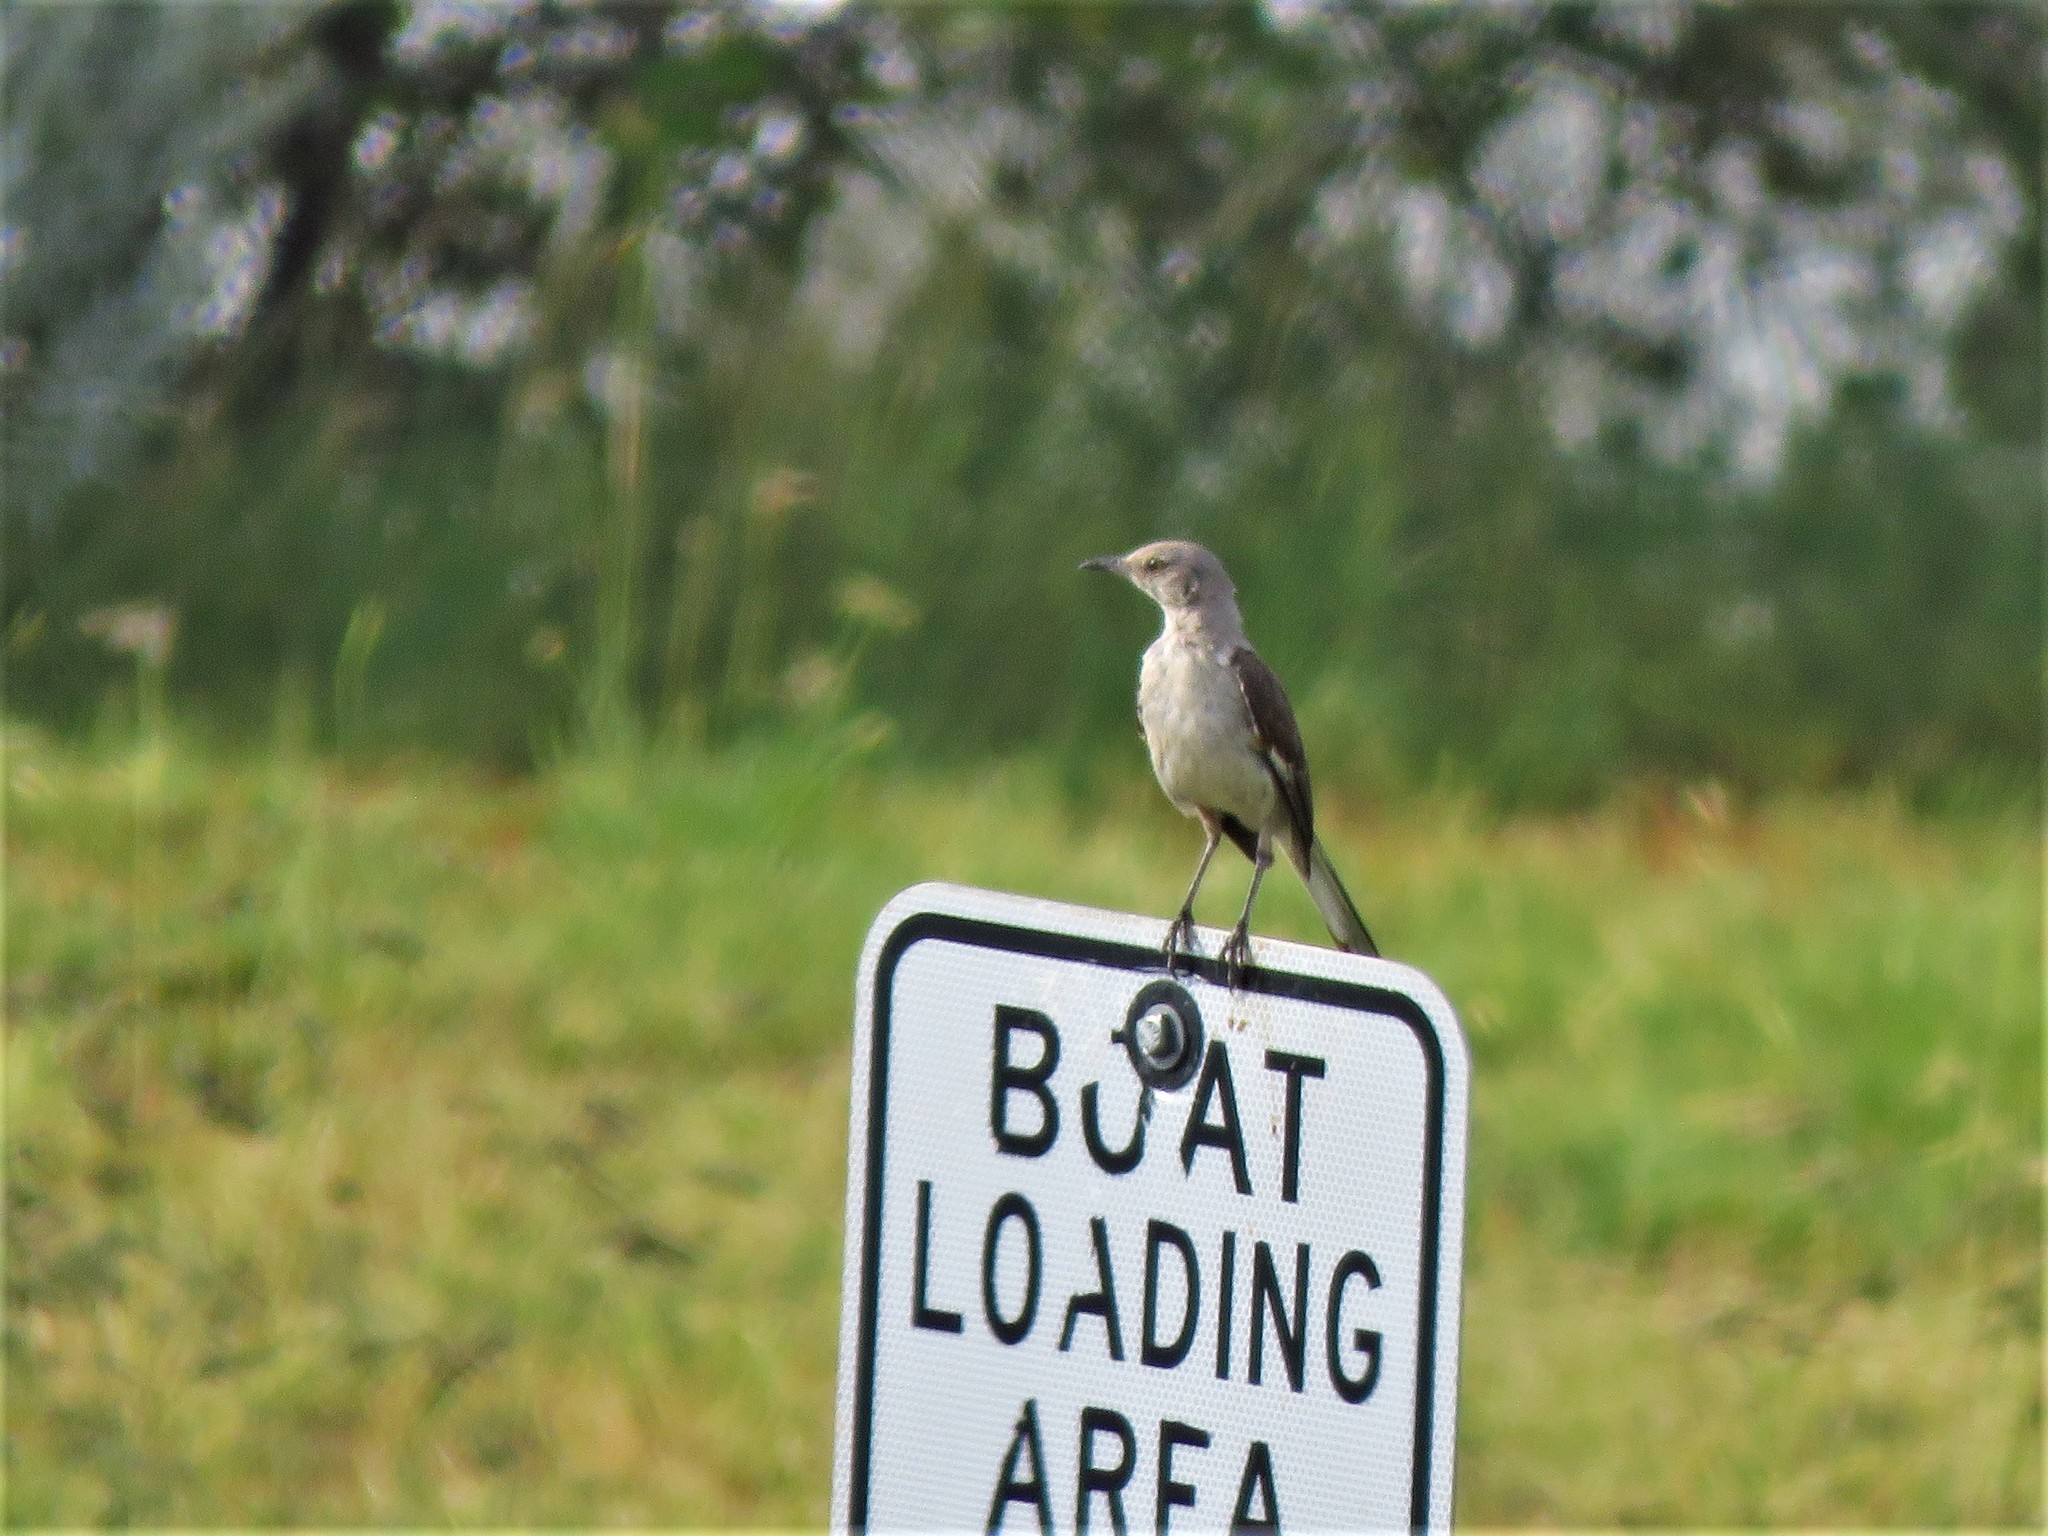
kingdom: Animalia
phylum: Chordata
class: Aves
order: Passeriformes
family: Mimidae
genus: Mimus
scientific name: Mimus polyglottos
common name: Northern mockingbird
